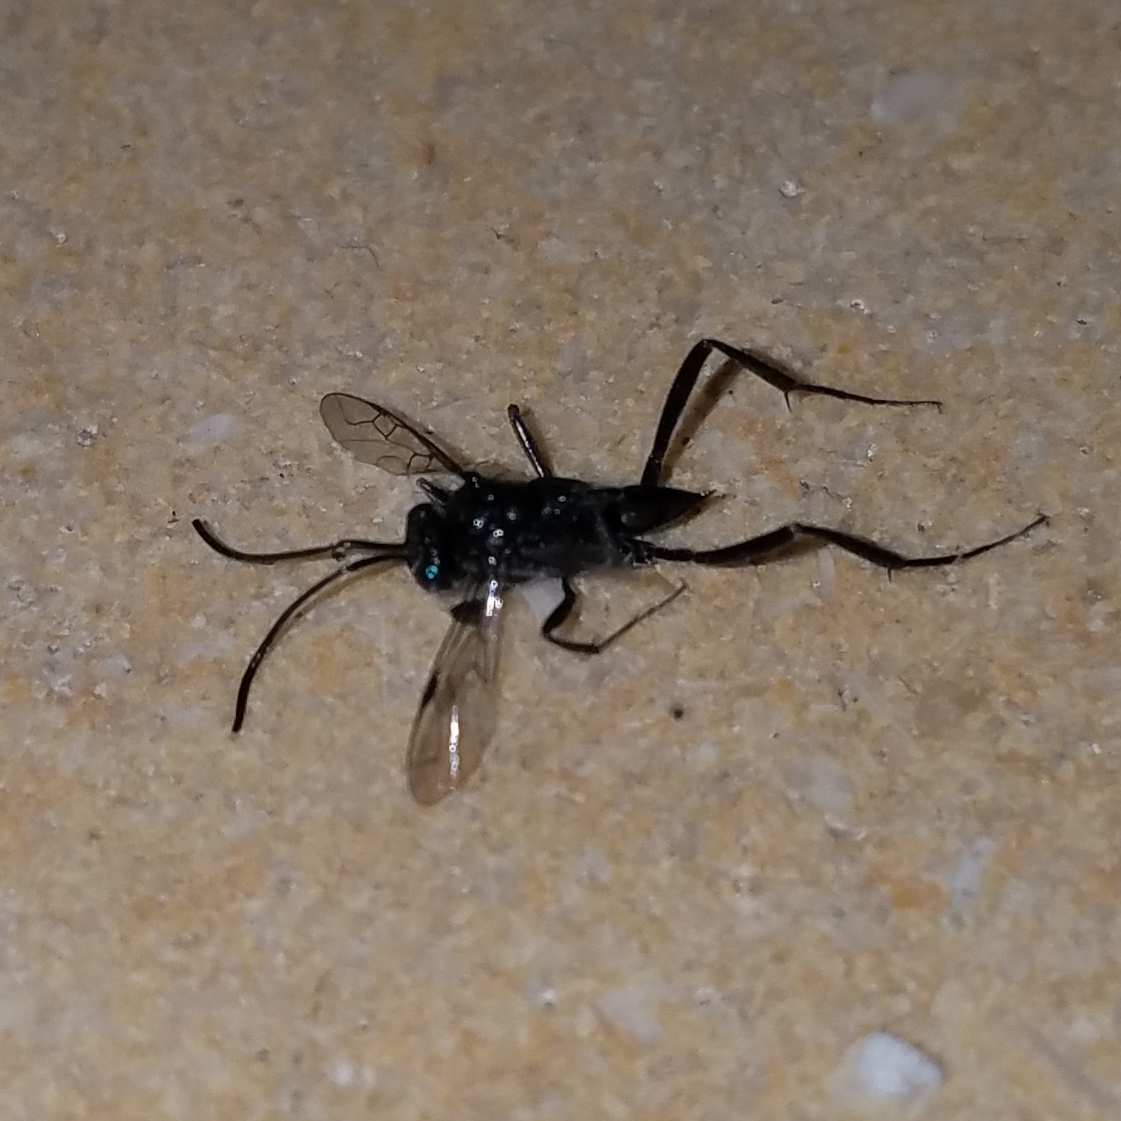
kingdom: Animalia
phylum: Arthropoda
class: Insecta
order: Hymenoptera
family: Evaniidae
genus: Evania
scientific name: Evania appendigaster
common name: Ensign wasp
